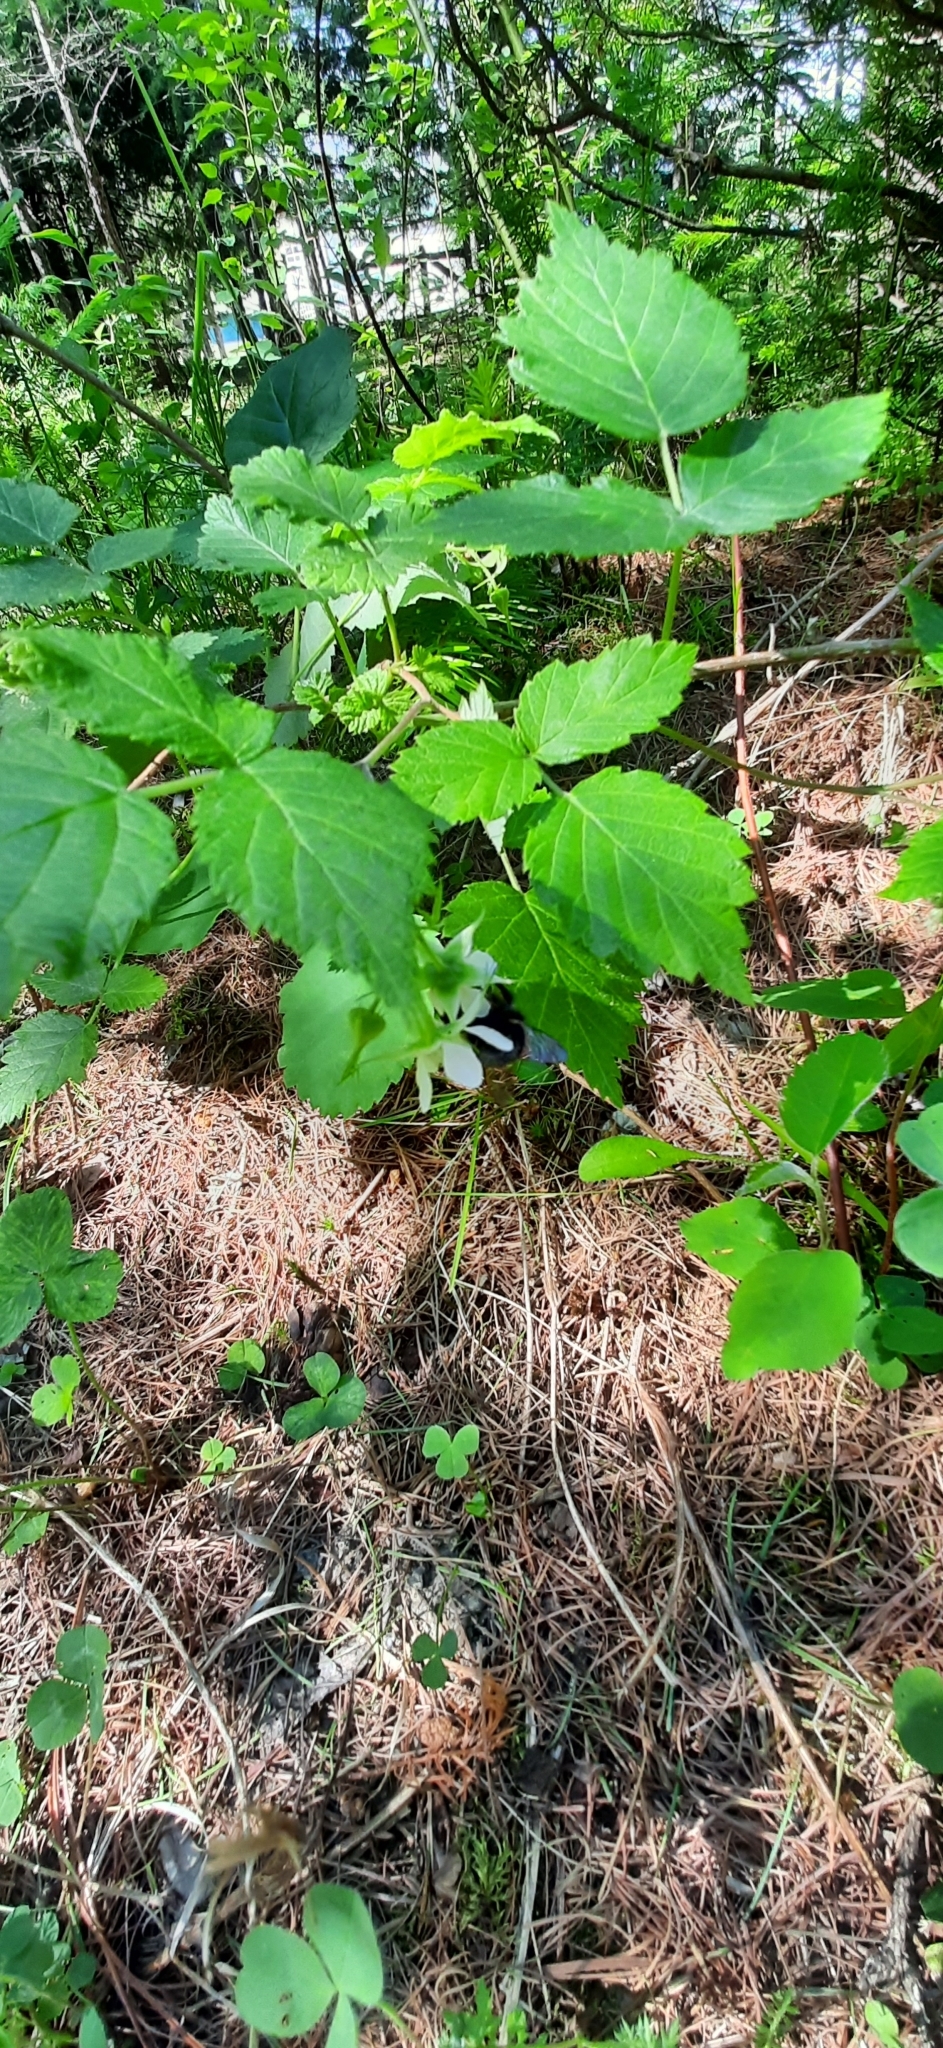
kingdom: Plantae
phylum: Tracheophyta
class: Magnoliopsida
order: Rosales
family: Rosaceae
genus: Rubus
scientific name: Rubus idaeus
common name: Raspberry
